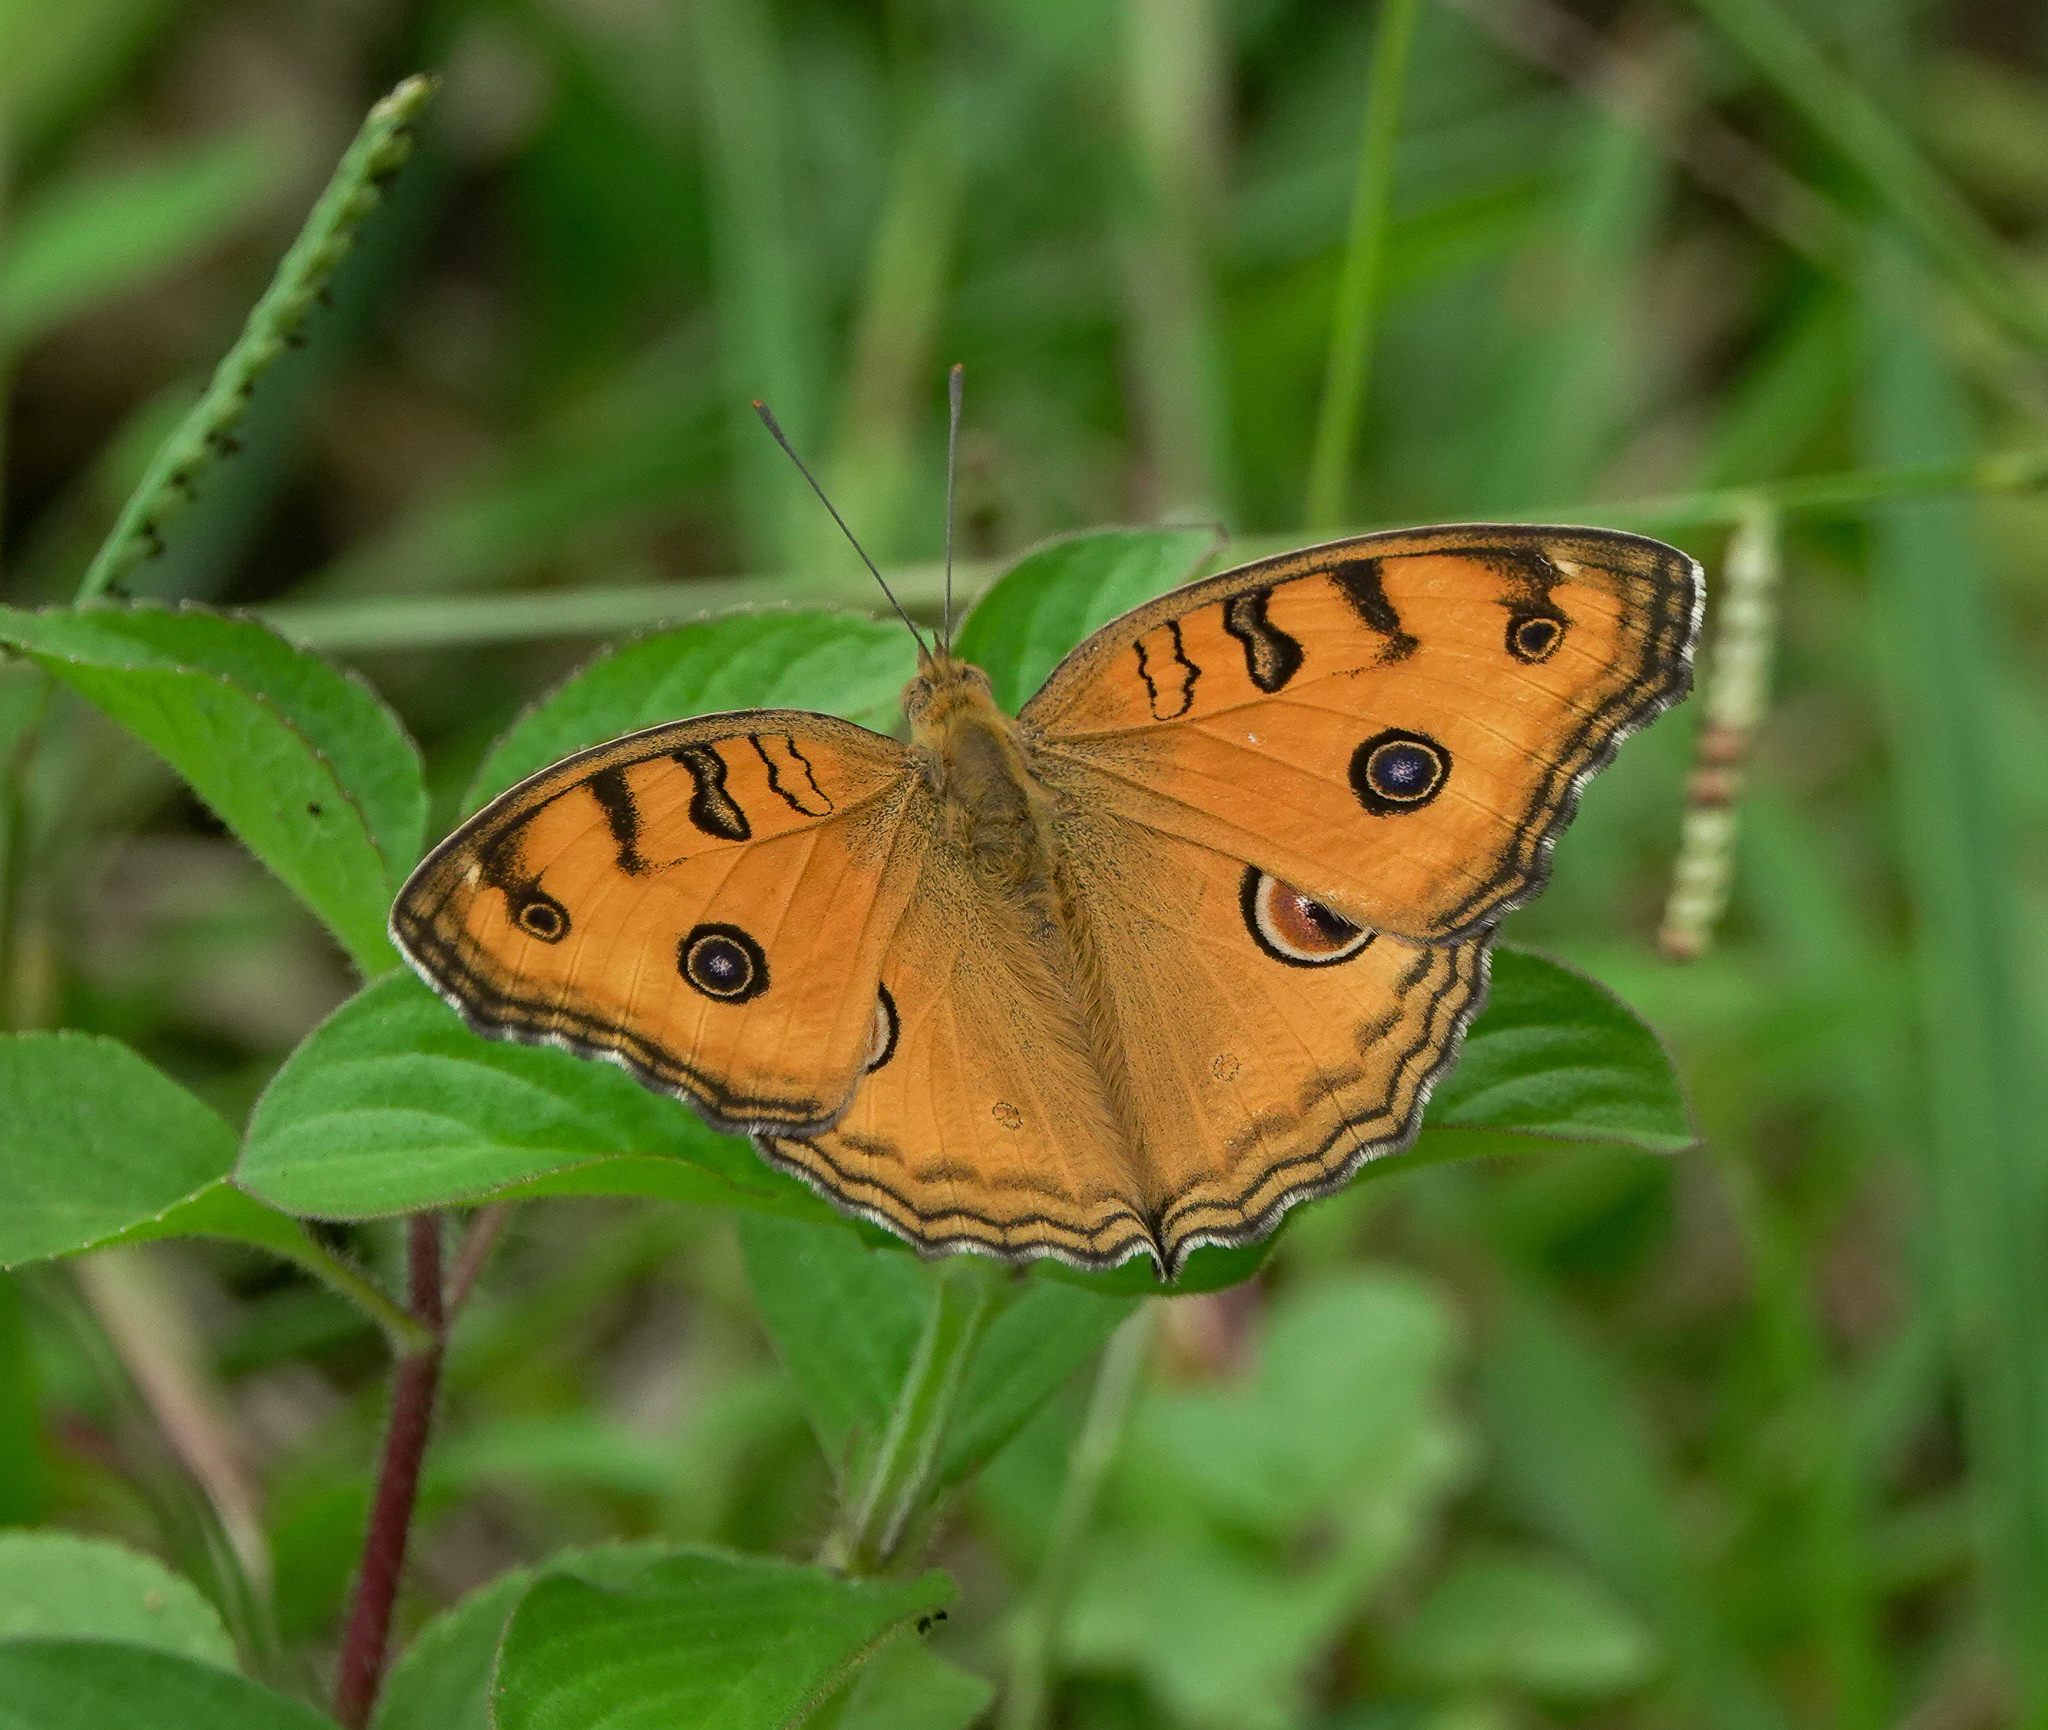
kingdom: Animalia
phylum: Arthropoda
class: Insecta
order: Lepidoptera
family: Nymphalidae
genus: Junonia
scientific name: Junonia almana
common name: Peacock pansy
